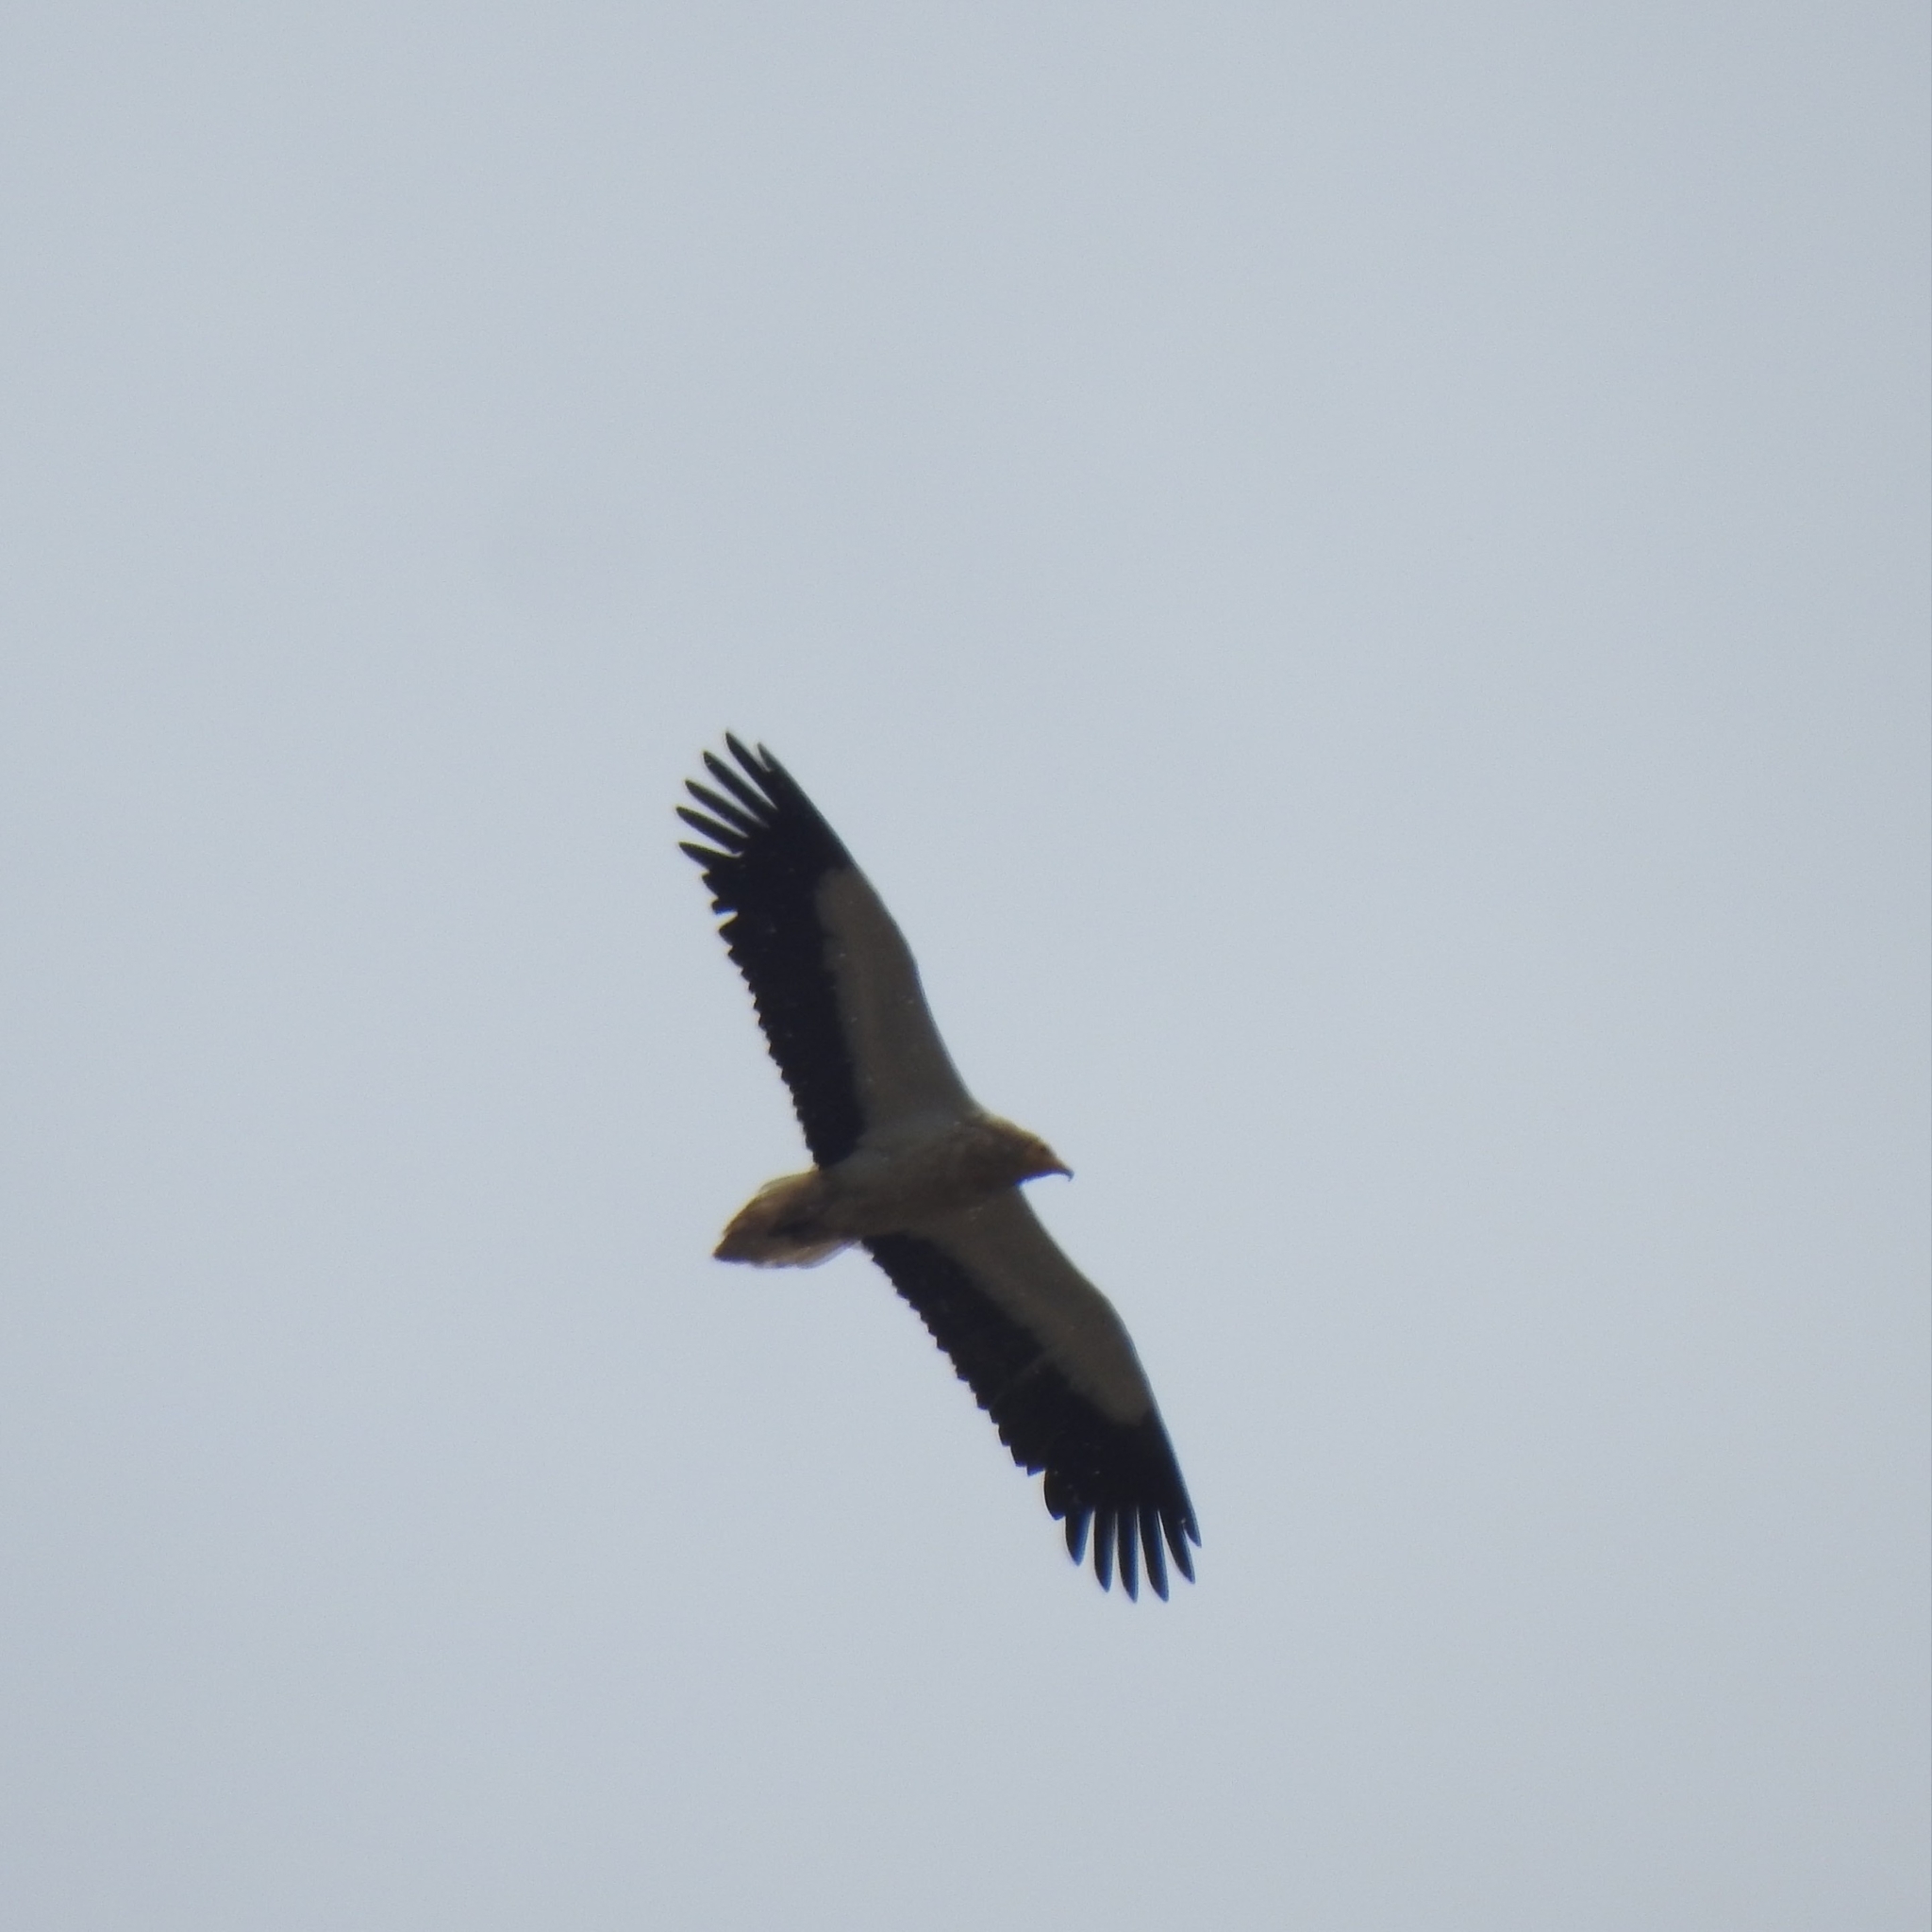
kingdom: Animalia
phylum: Chordata
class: Aves
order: Accipitriformes
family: Accipitridae
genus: Neophron
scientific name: Neophron percnopterus
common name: Egyptian vulture
